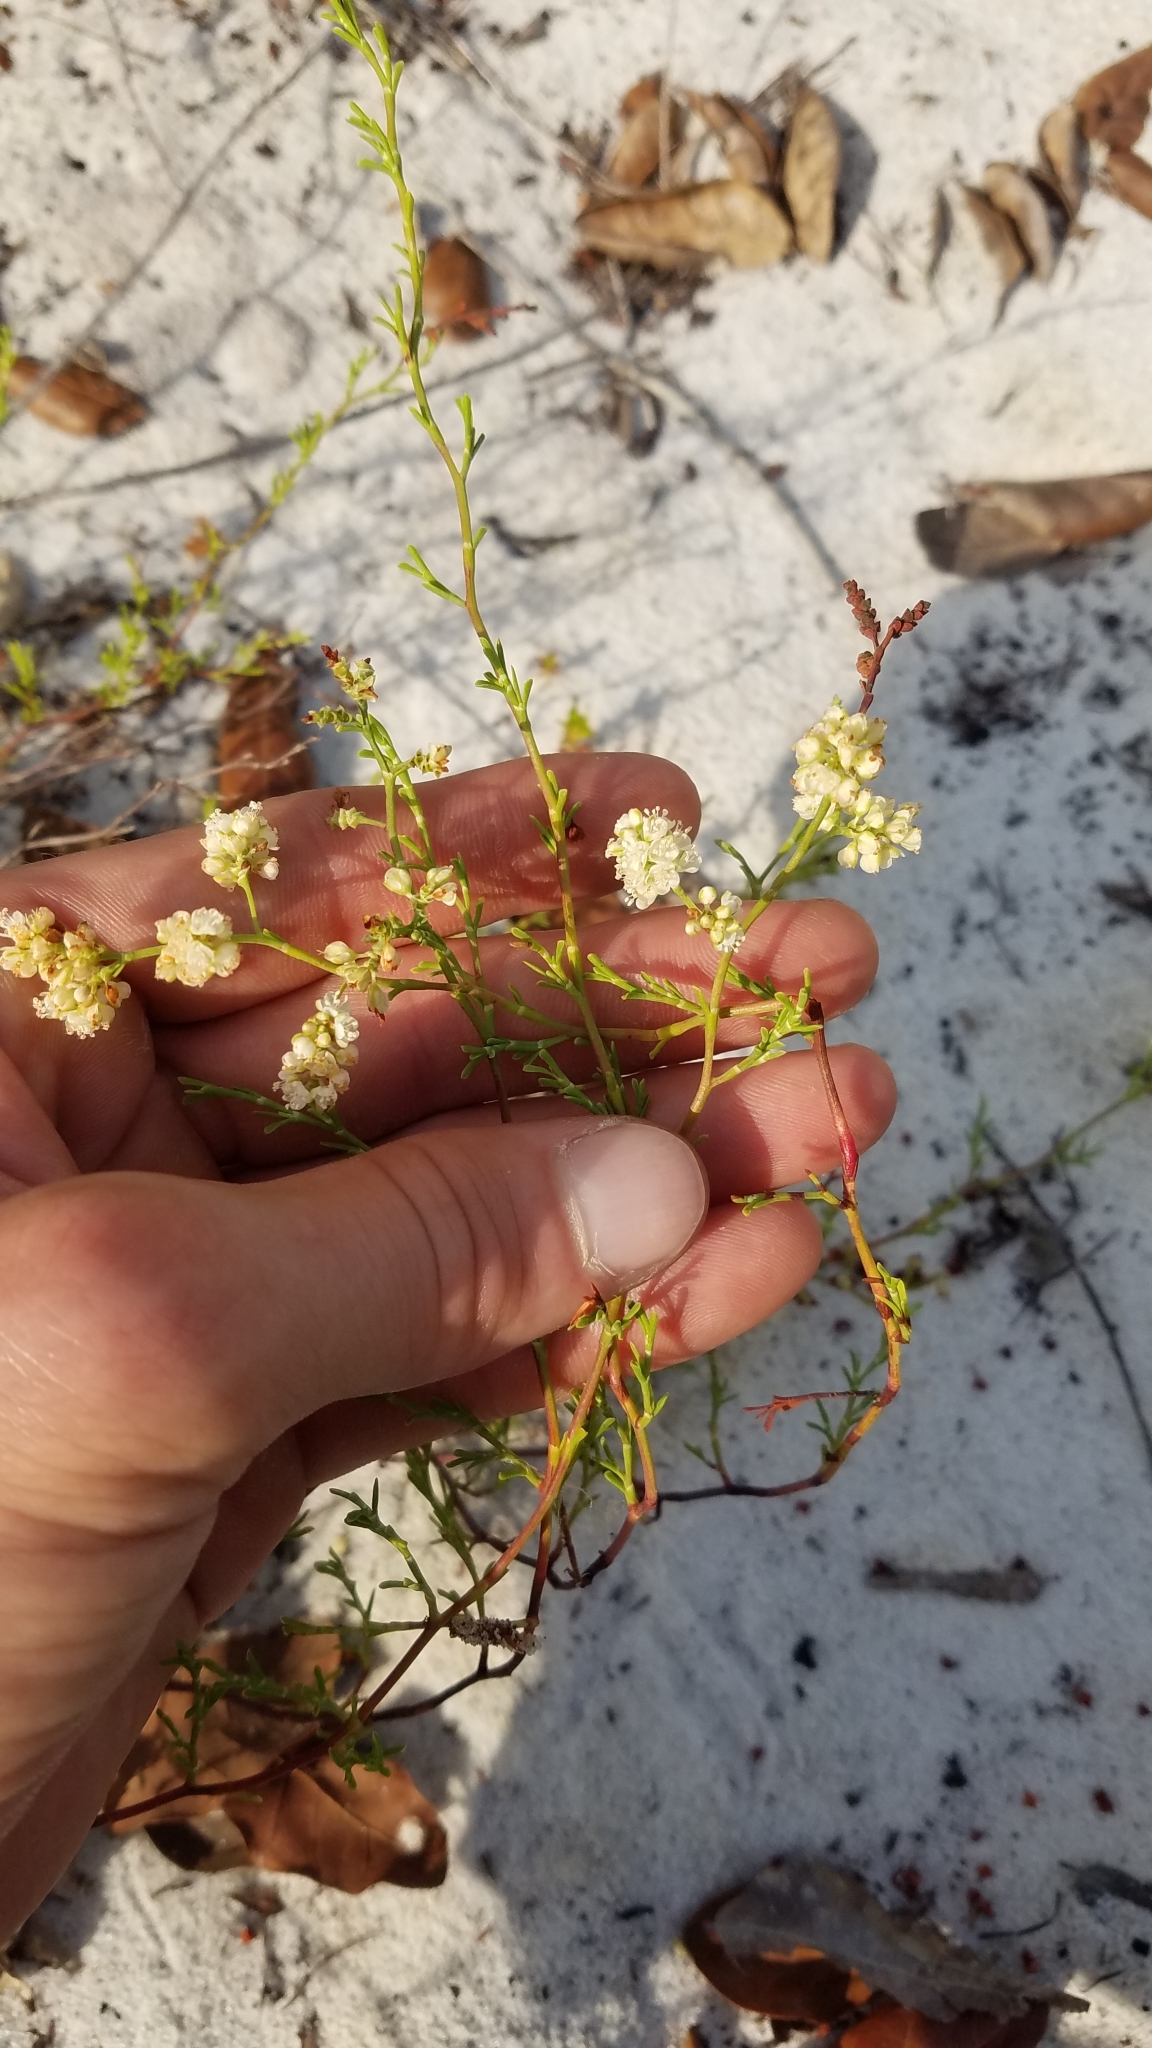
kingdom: Plantae
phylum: Tracheophyta
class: Magnoliopsida
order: Caryophyllales
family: Polygonaceae
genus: Polygonella
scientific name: Polygonella myriophylla
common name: Sandlace
